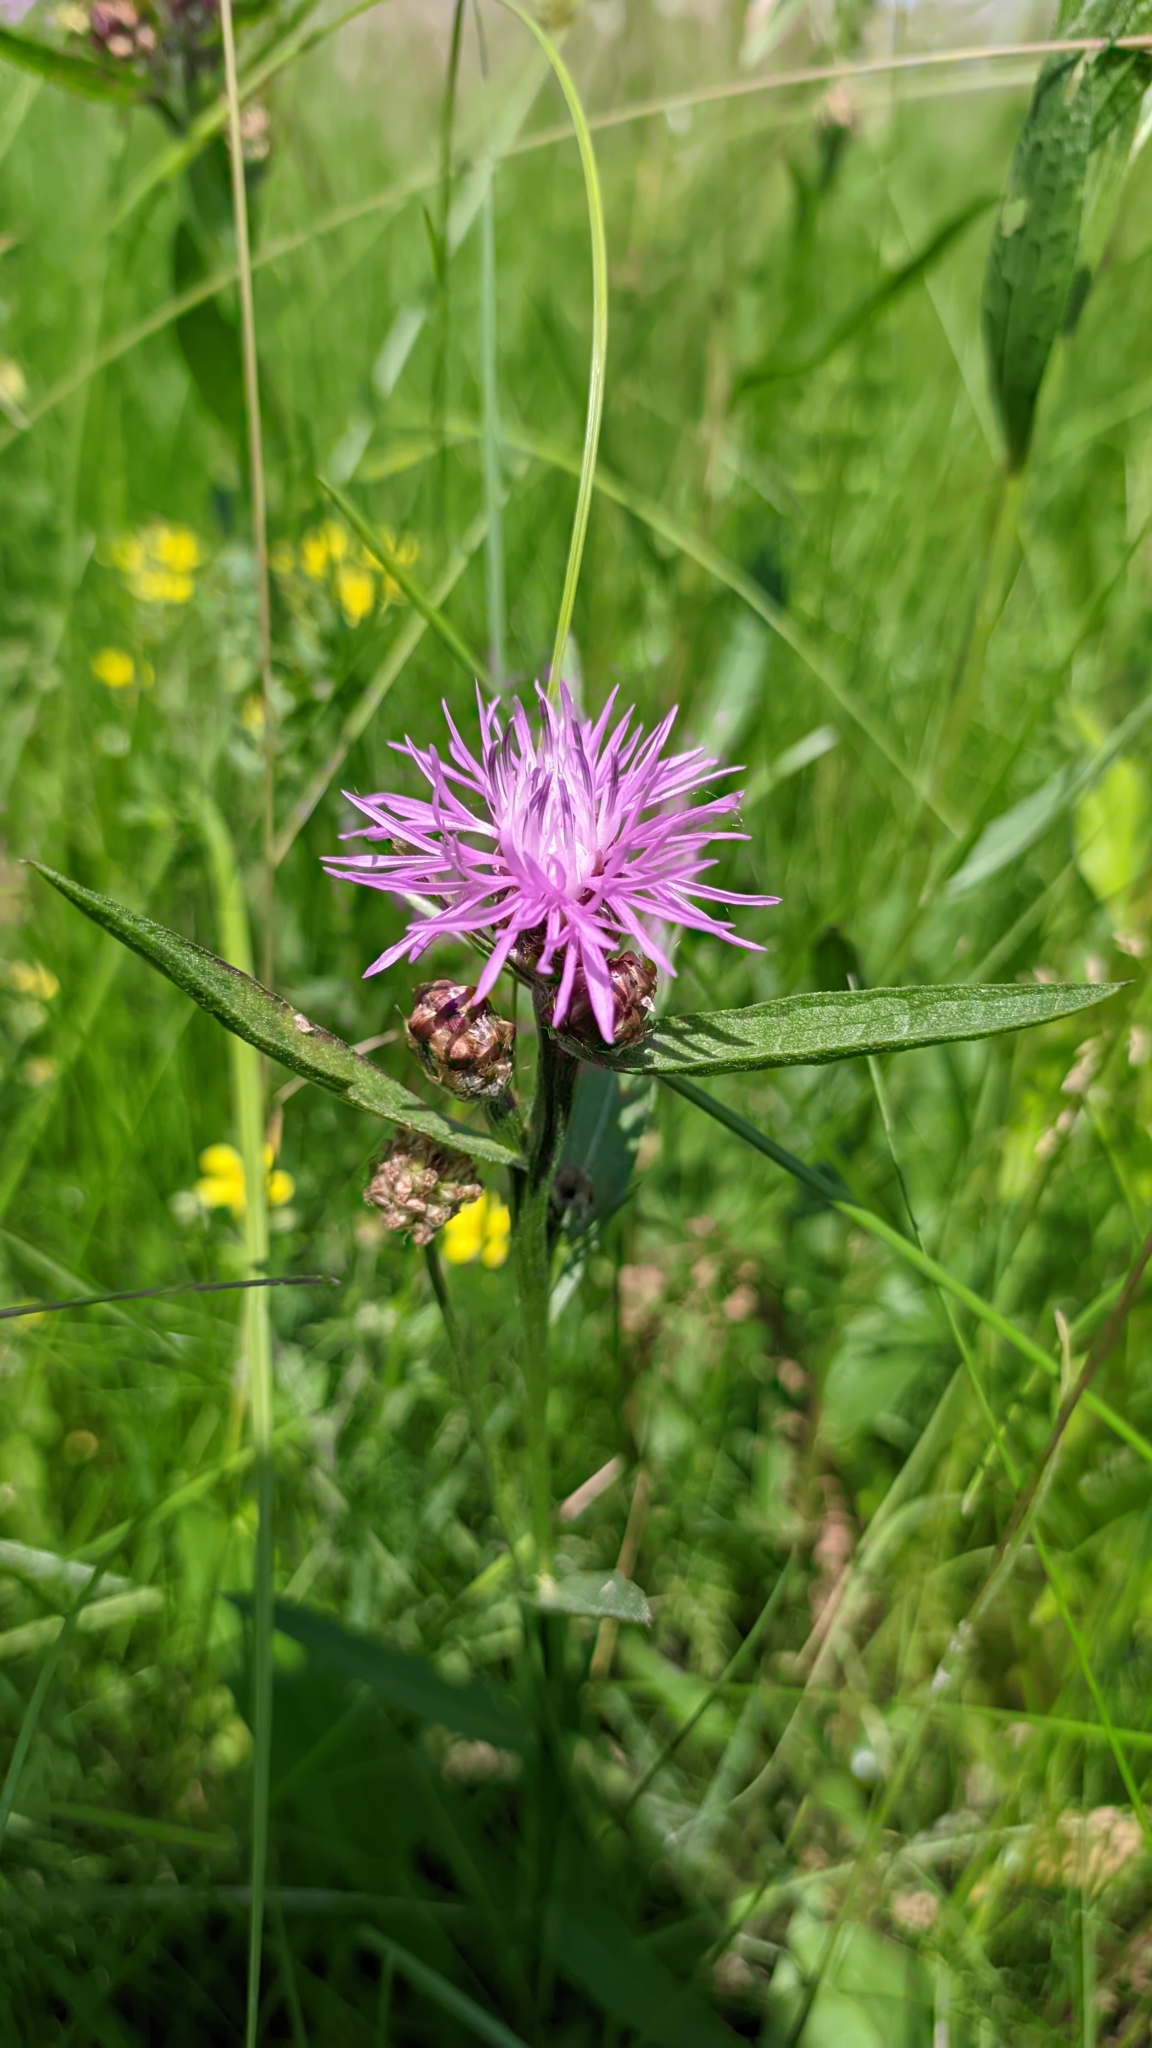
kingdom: Plantae
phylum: Tracheophyta
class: Magnoliopsida
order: Asterales
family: Asteraceae
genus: Centaurea
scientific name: Centaurea jacea
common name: Brown knapweed
